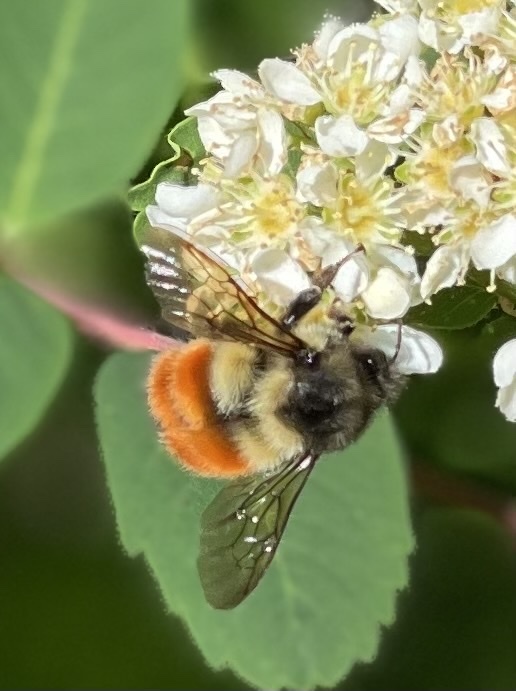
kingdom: Animalia
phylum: Arthropoda
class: Insecta
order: Hymenoptera
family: Apidae
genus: Bombus
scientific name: Bombus melanopygus
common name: Black tail bumble bee
